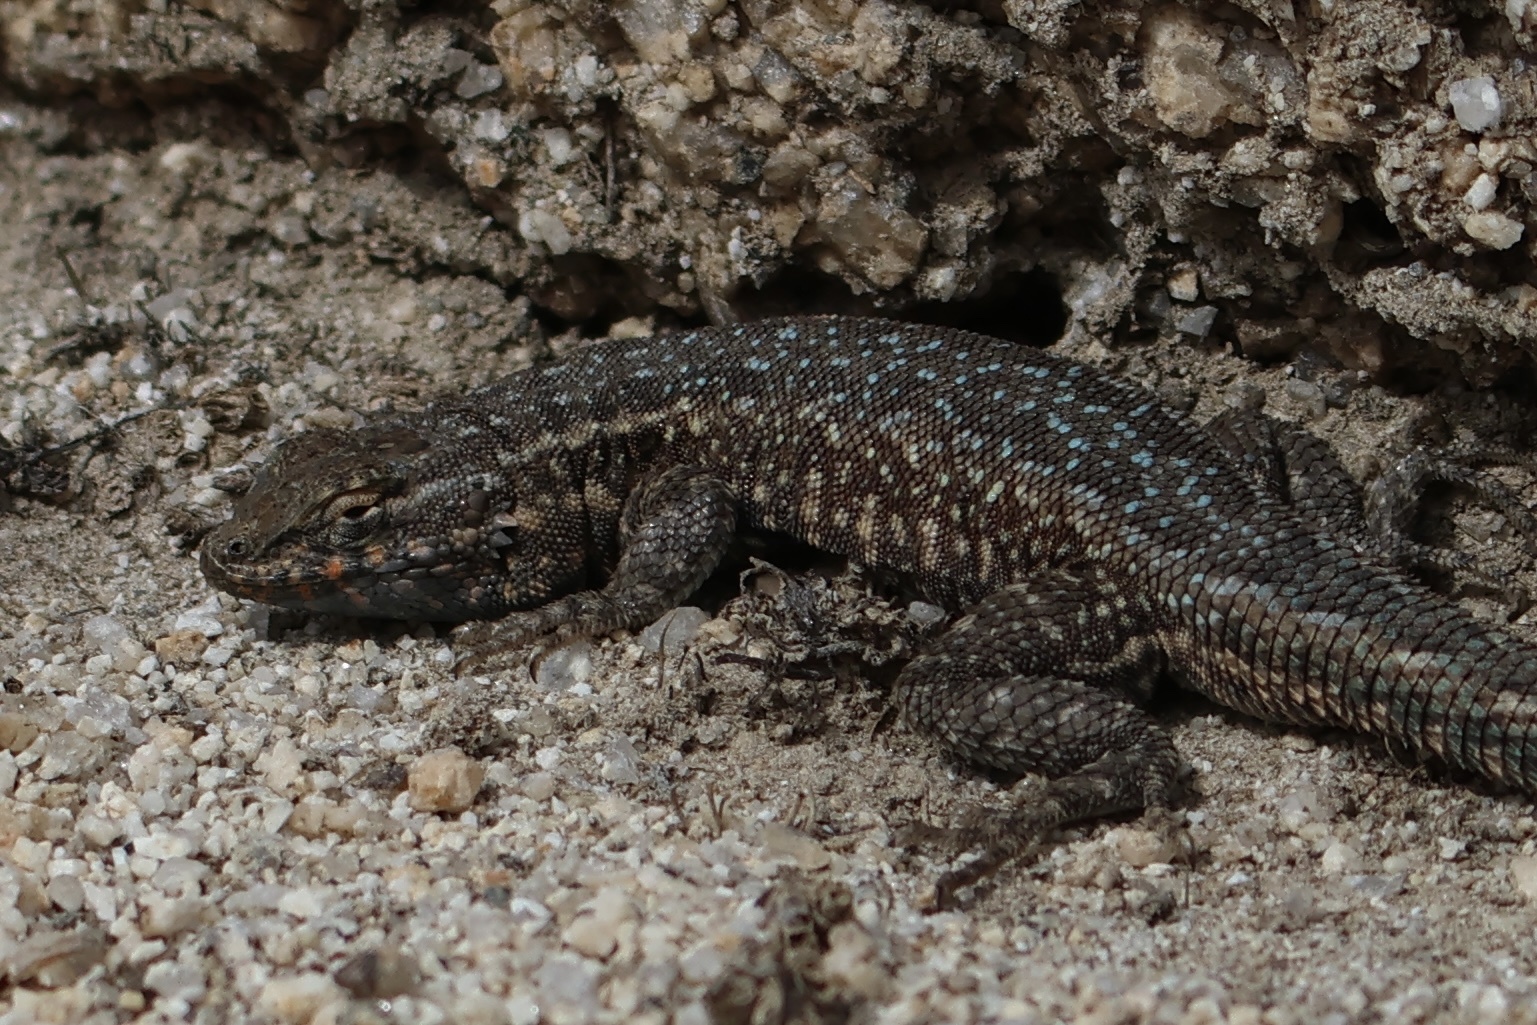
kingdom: Animalia
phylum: Chordata
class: Squamata
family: Phrynosomatidae
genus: Uta
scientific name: Uta stansburiana
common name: Side-blotched lizard
